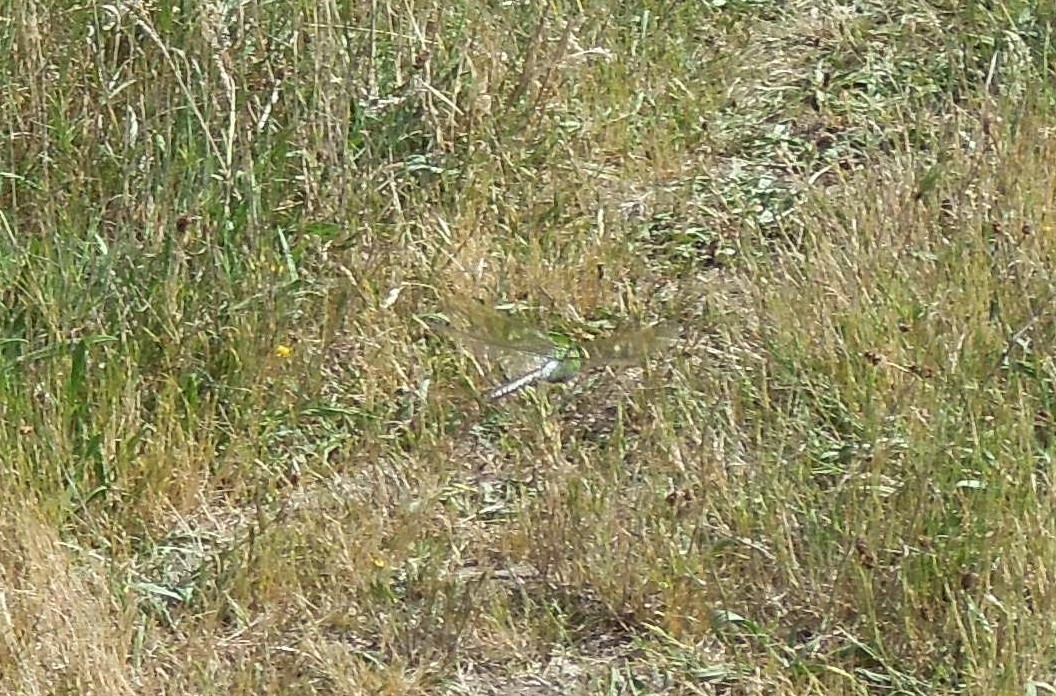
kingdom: Animalia
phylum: Arthropoda
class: Insecta
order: Odonata
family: Aeshnidae
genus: Anax
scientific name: Anax imperator
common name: Emperor dragonfly
